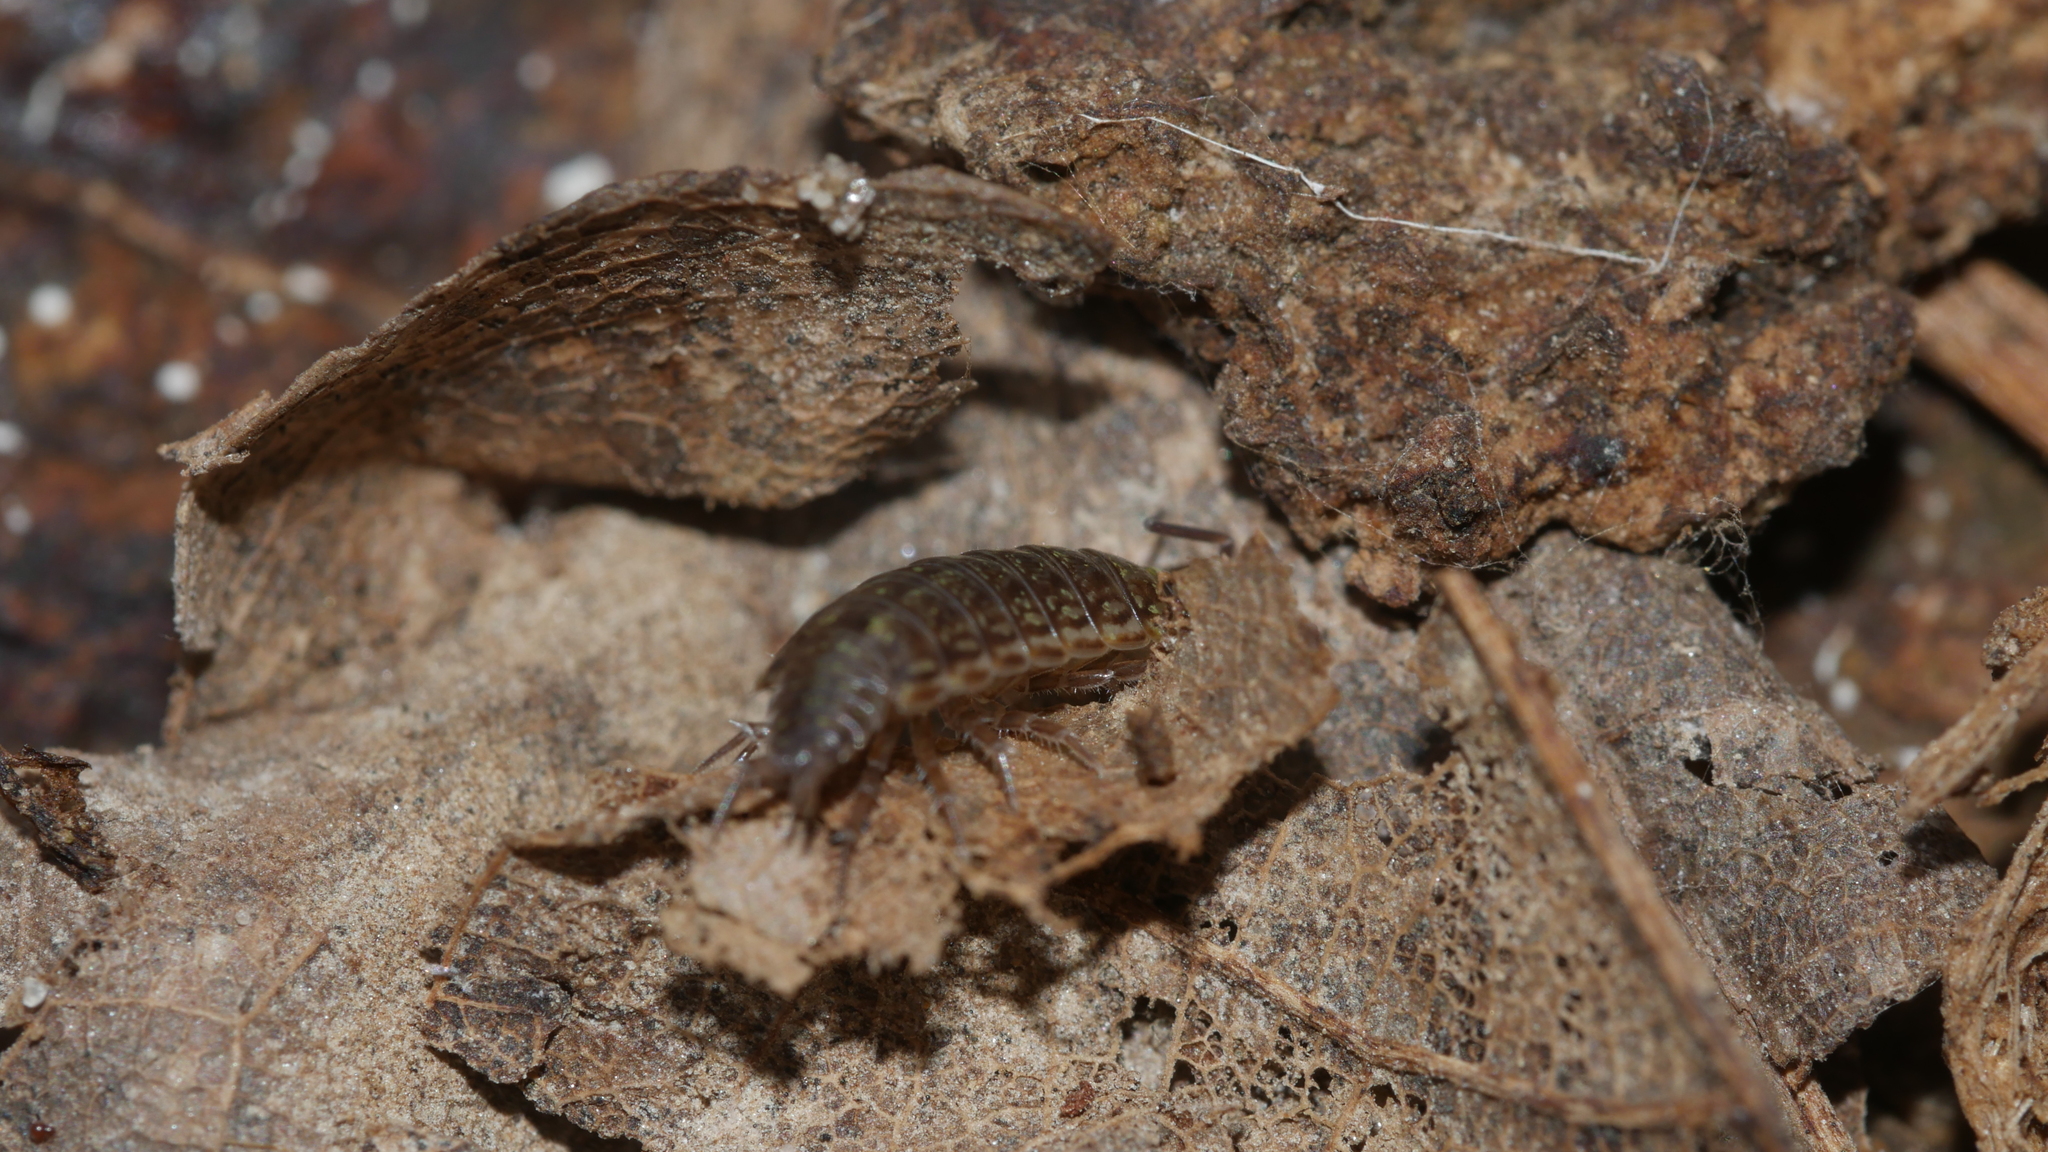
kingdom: Animalia
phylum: Arthropoda
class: Malacostraca
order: Isopoda
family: Philosciidae
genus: Philoscia
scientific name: Philoscia muscorum
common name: Common striped woodlouse
